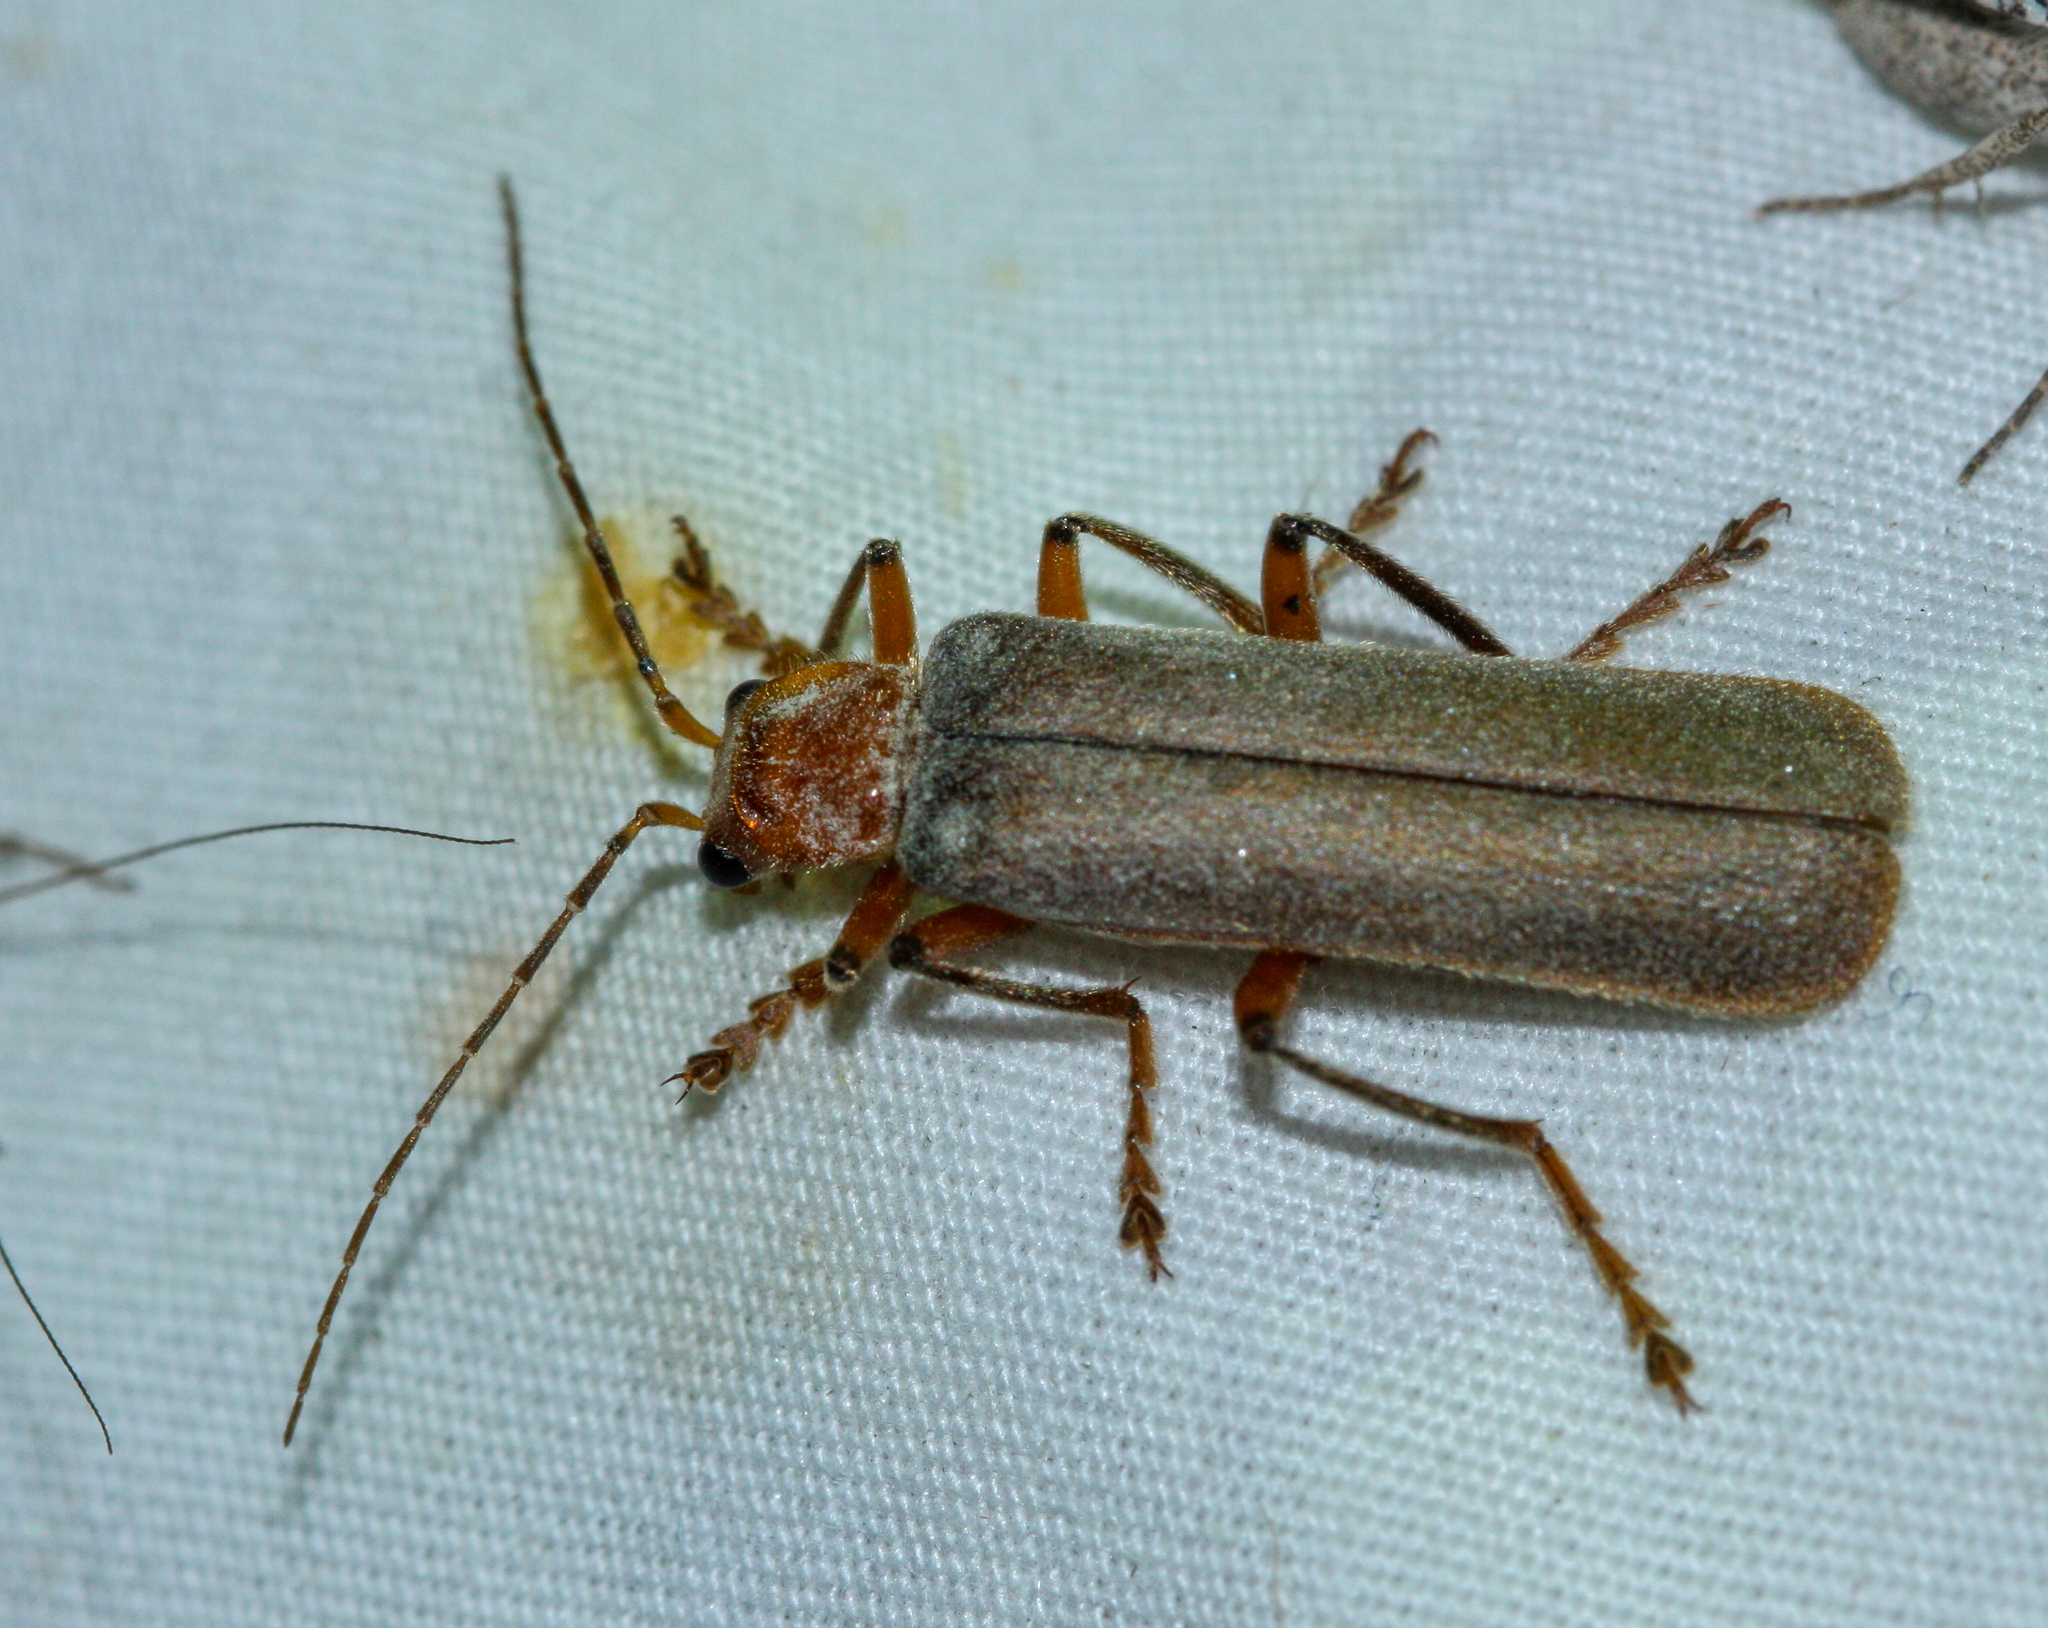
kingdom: Animalia
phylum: Arthropoda
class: Insecta
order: Coleoptera
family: Cantharidae
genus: Pacificanthia
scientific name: Pacificanthia consors
